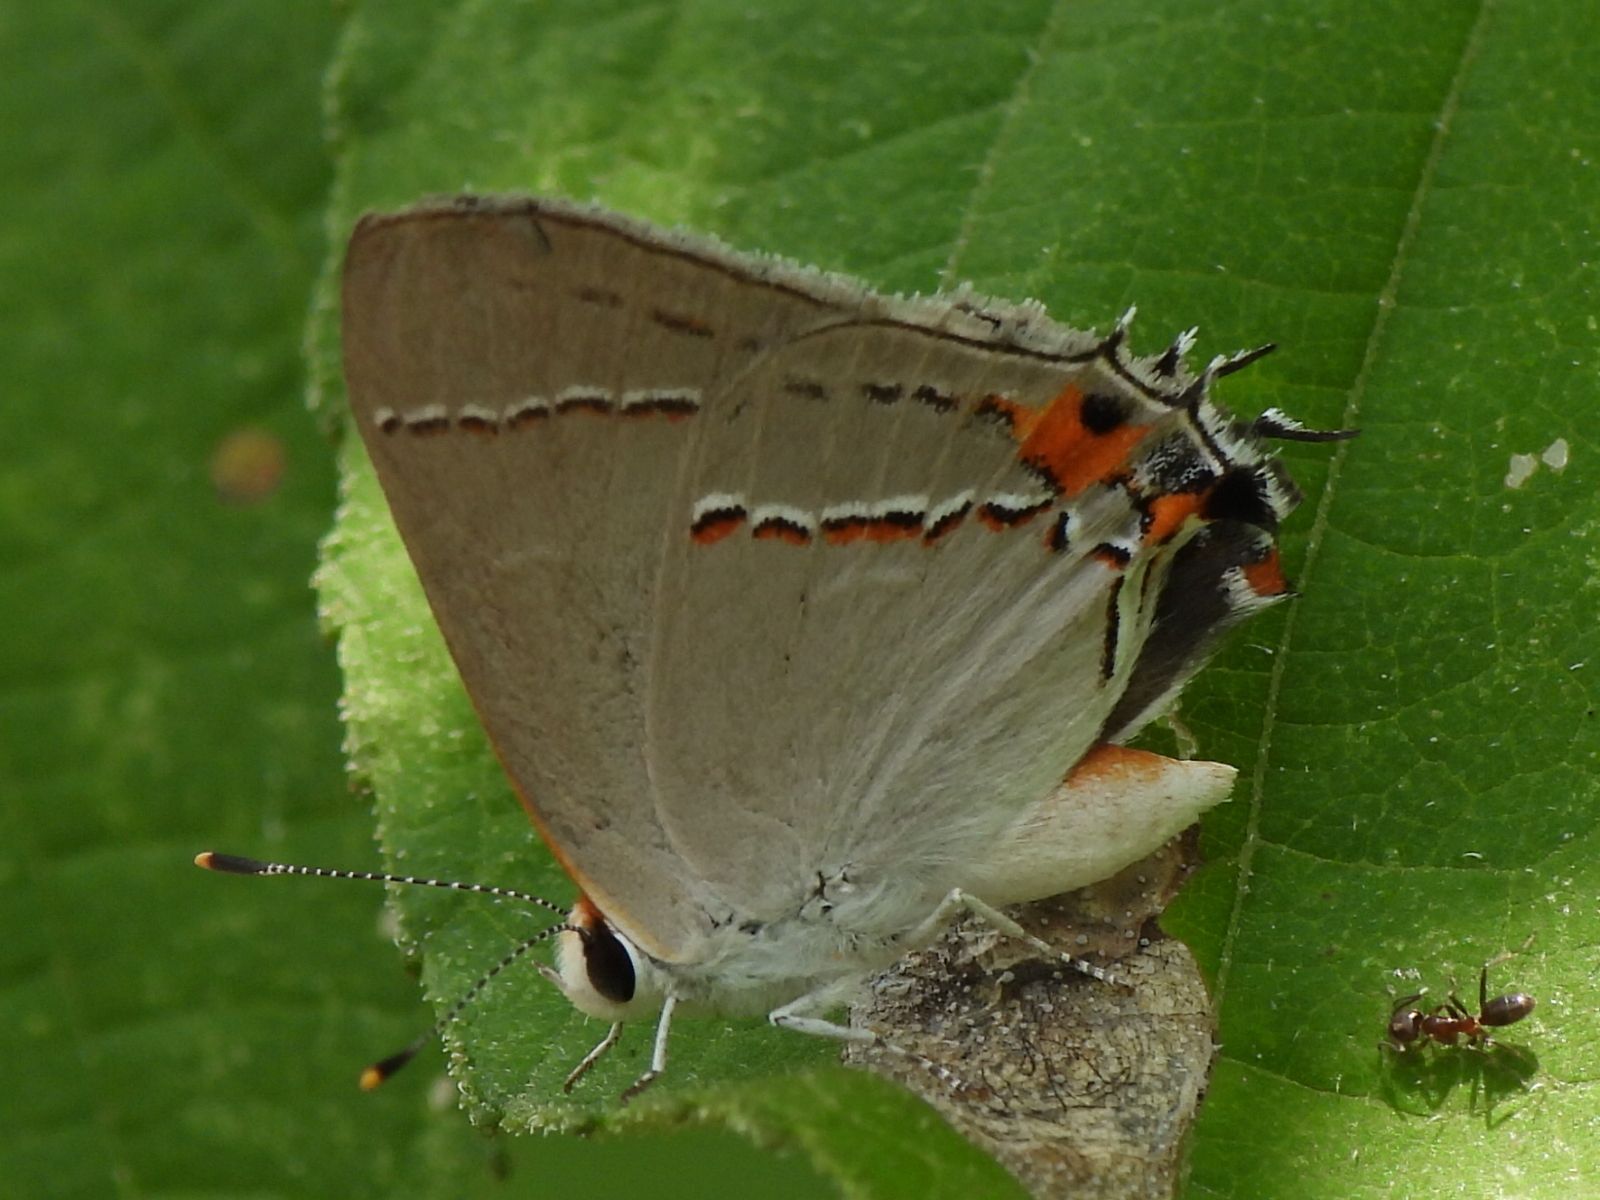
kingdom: Animalia
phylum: Arthropoda
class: Insecta
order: Lepidoptera
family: Lycaenidae
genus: Strymon
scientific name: Strymon melinus
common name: Gray hairstreak
